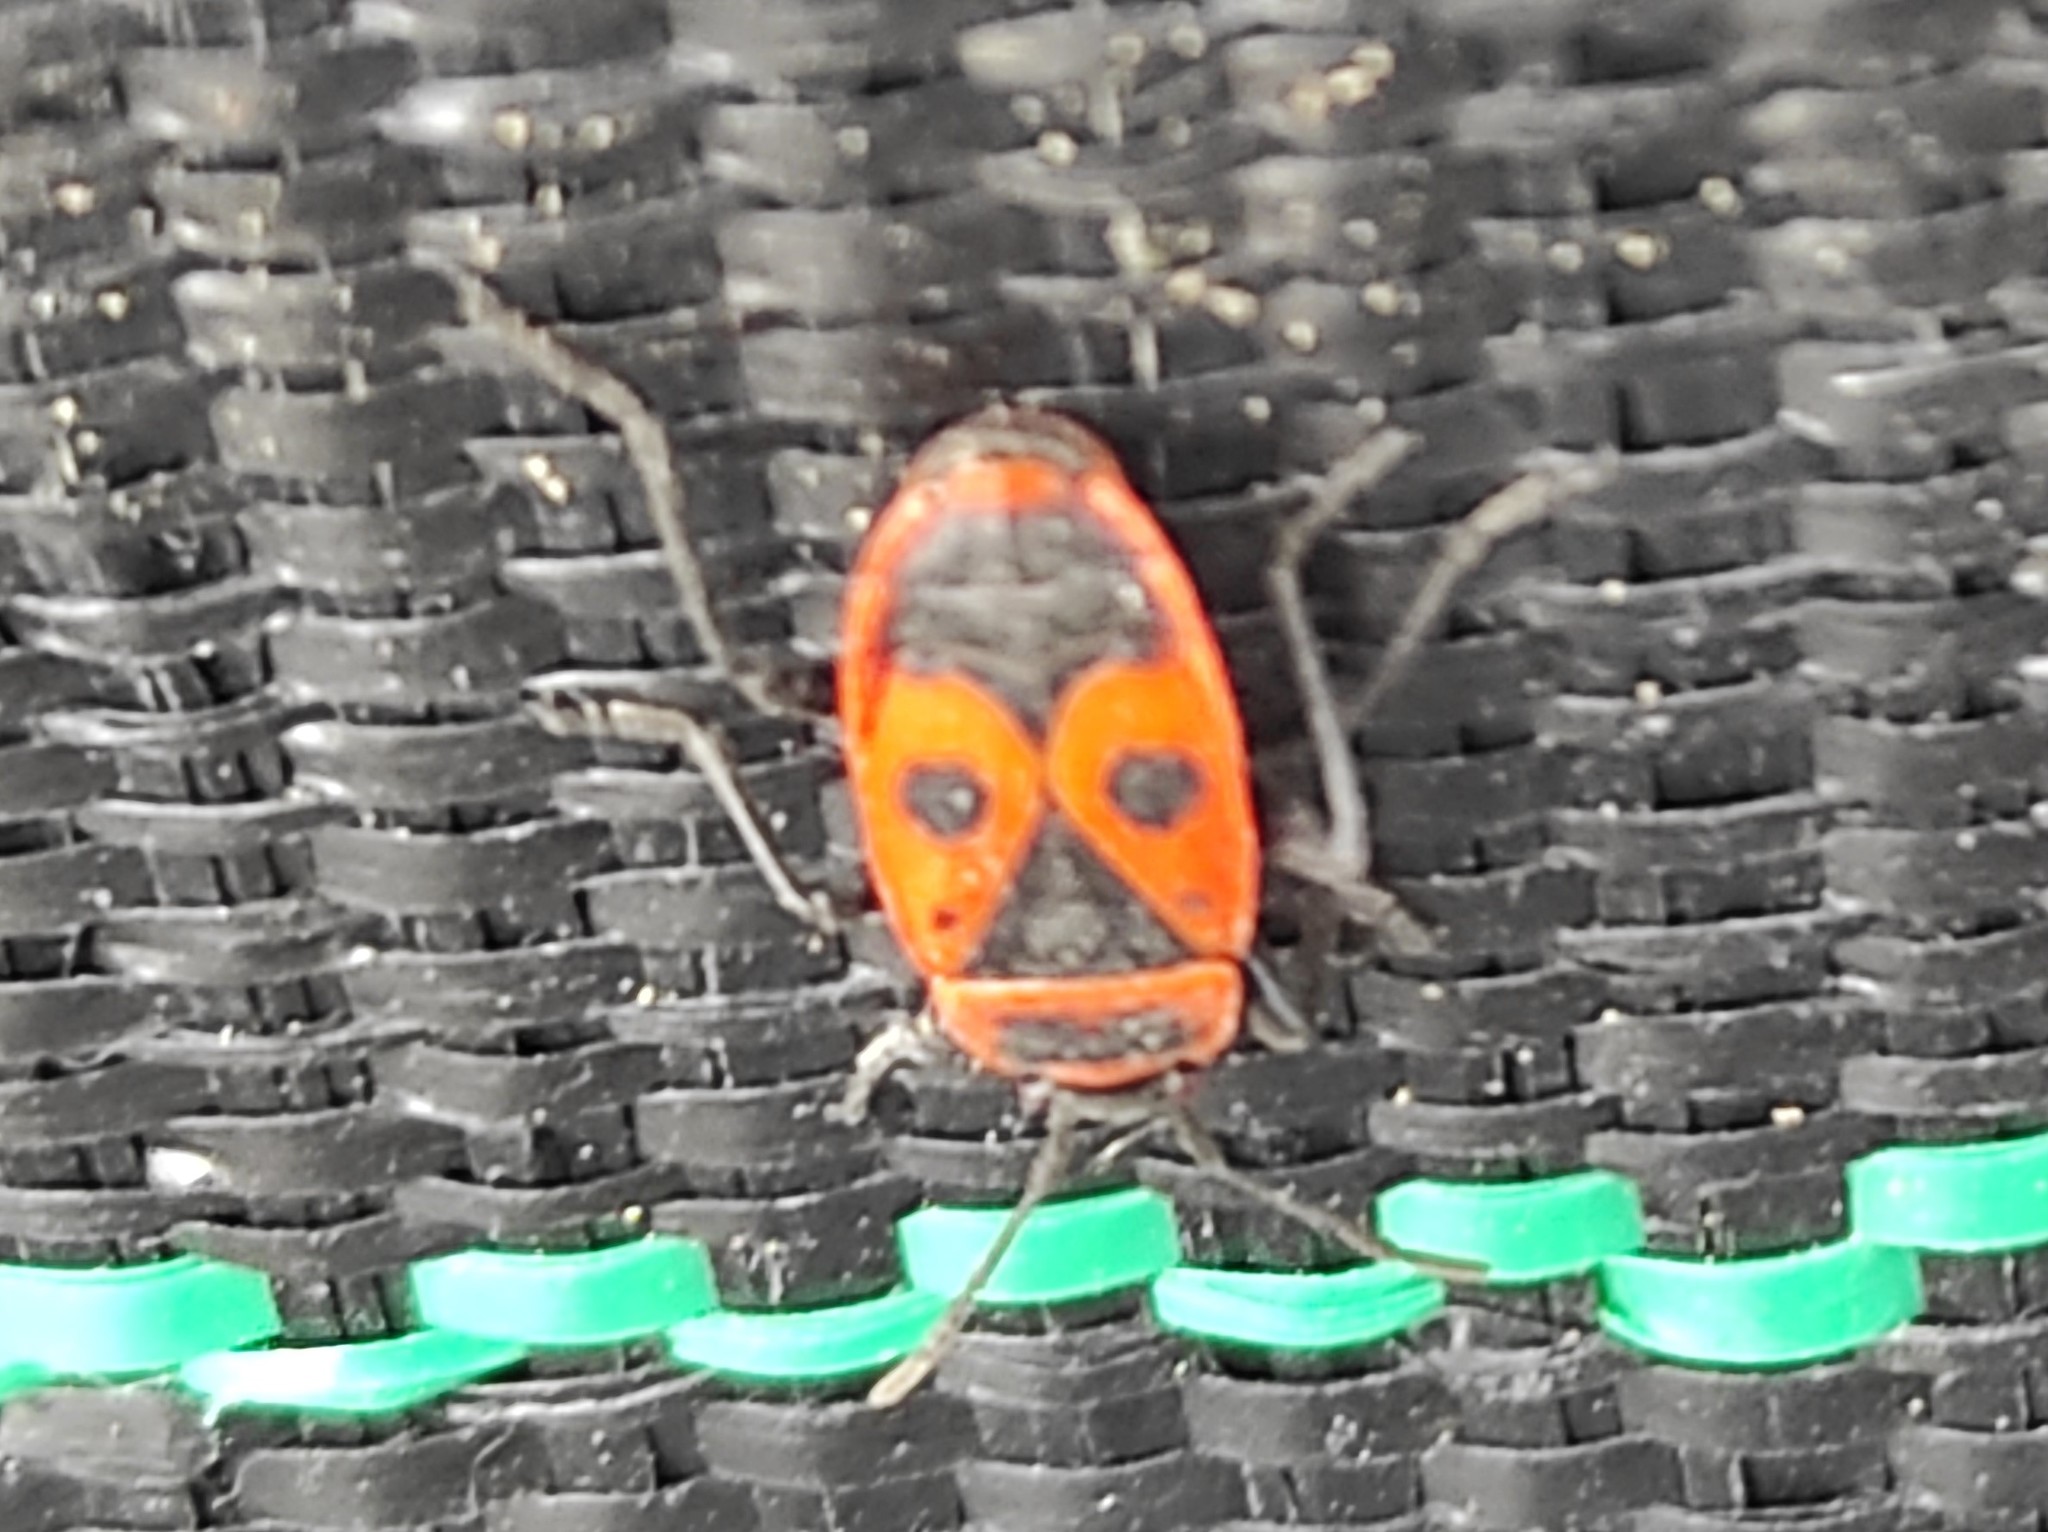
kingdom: Animalia
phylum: Arthropoda
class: Insecta
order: Hemiptera
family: Pyrrhocoridae
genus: Pyrrhocoris
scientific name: Pyrrhocoris apterus
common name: Firebug
